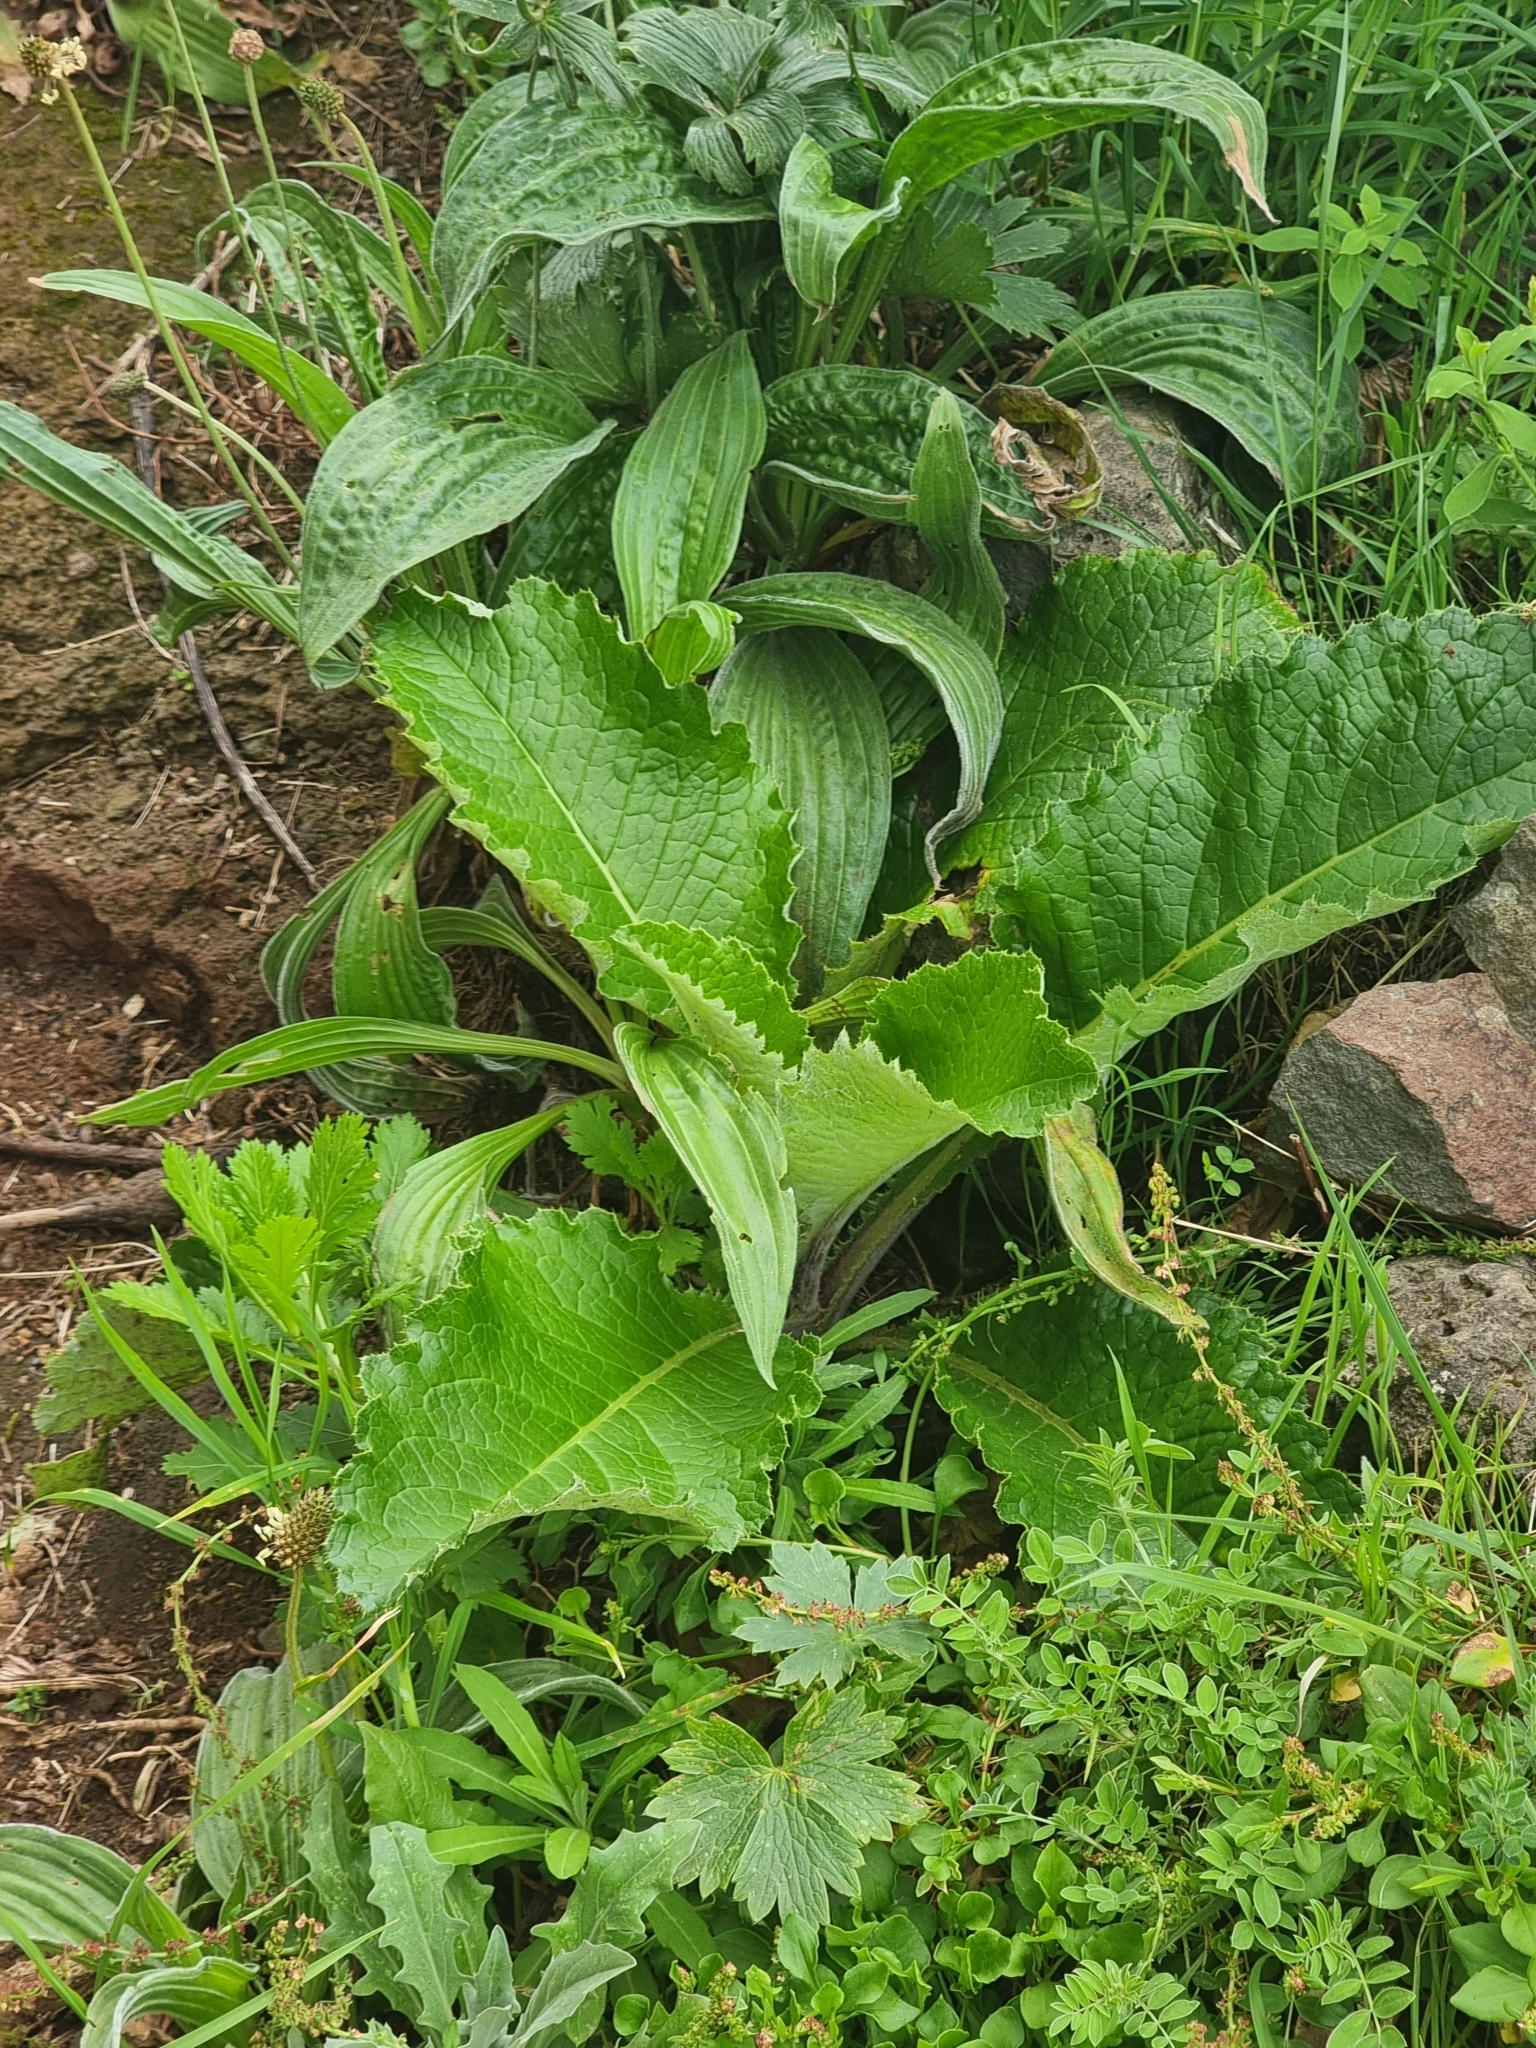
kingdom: Plantae
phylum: Tracheophyta
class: Magnoliopsida
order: Asterales
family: Asteraceae
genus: Cirsium
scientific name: Cirsium latifolium
